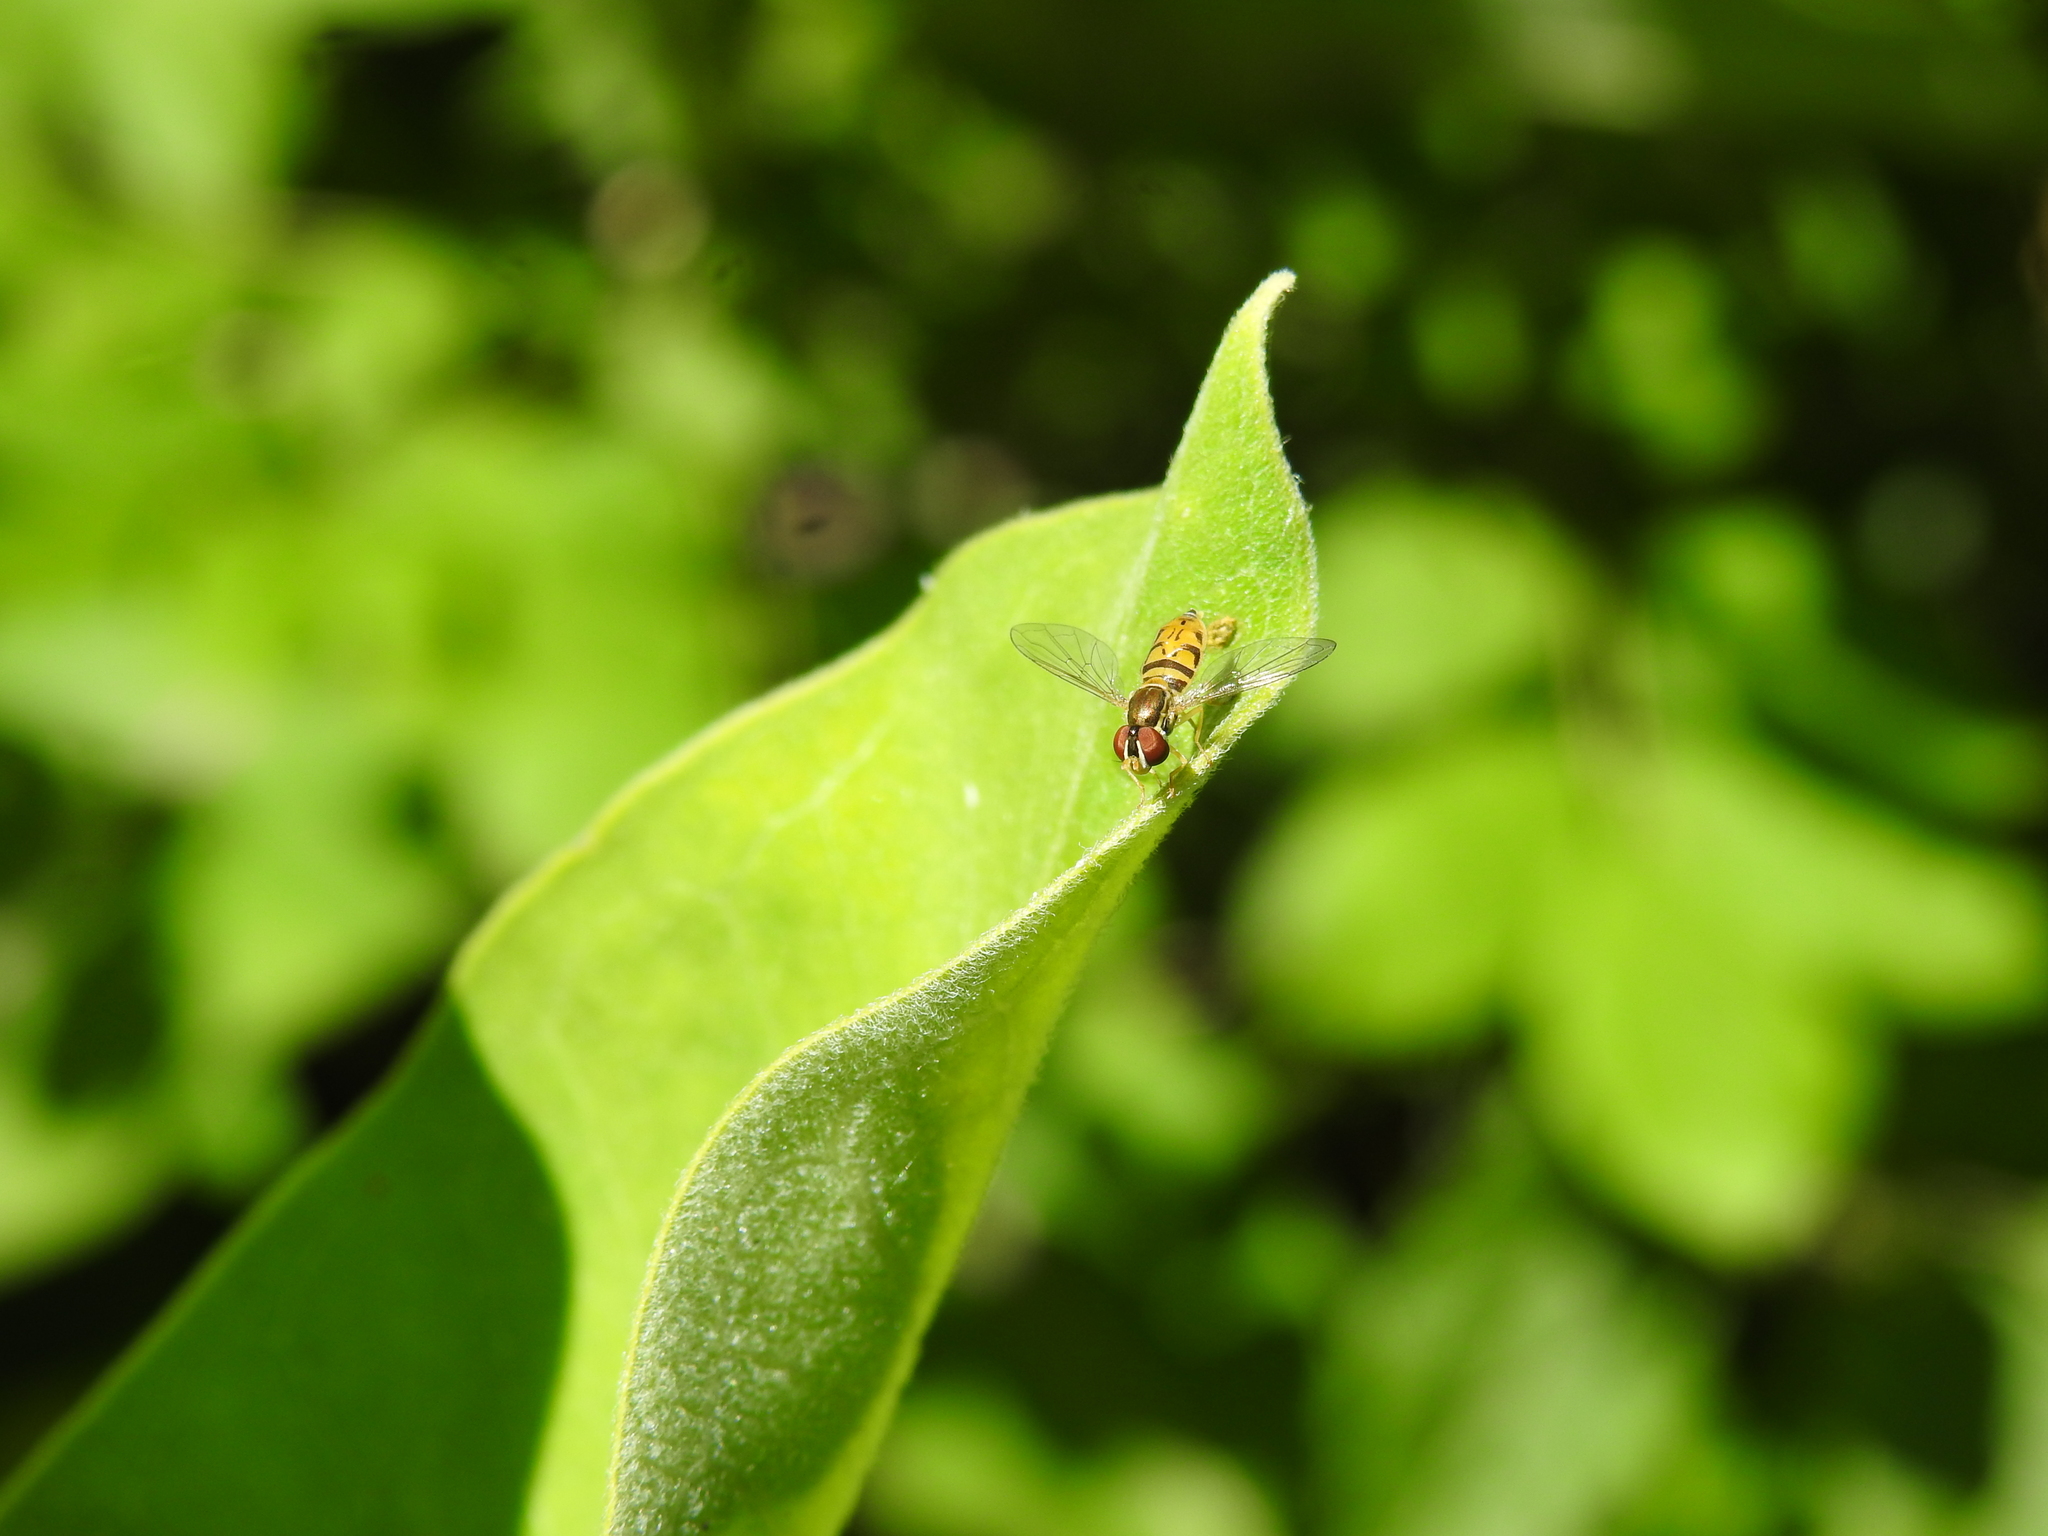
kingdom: Animalia
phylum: Arthropoda
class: Insecta
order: Diptera
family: Syrphidae
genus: Toxomerus
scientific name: Toxomerus marginatus
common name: Syrphid fly
